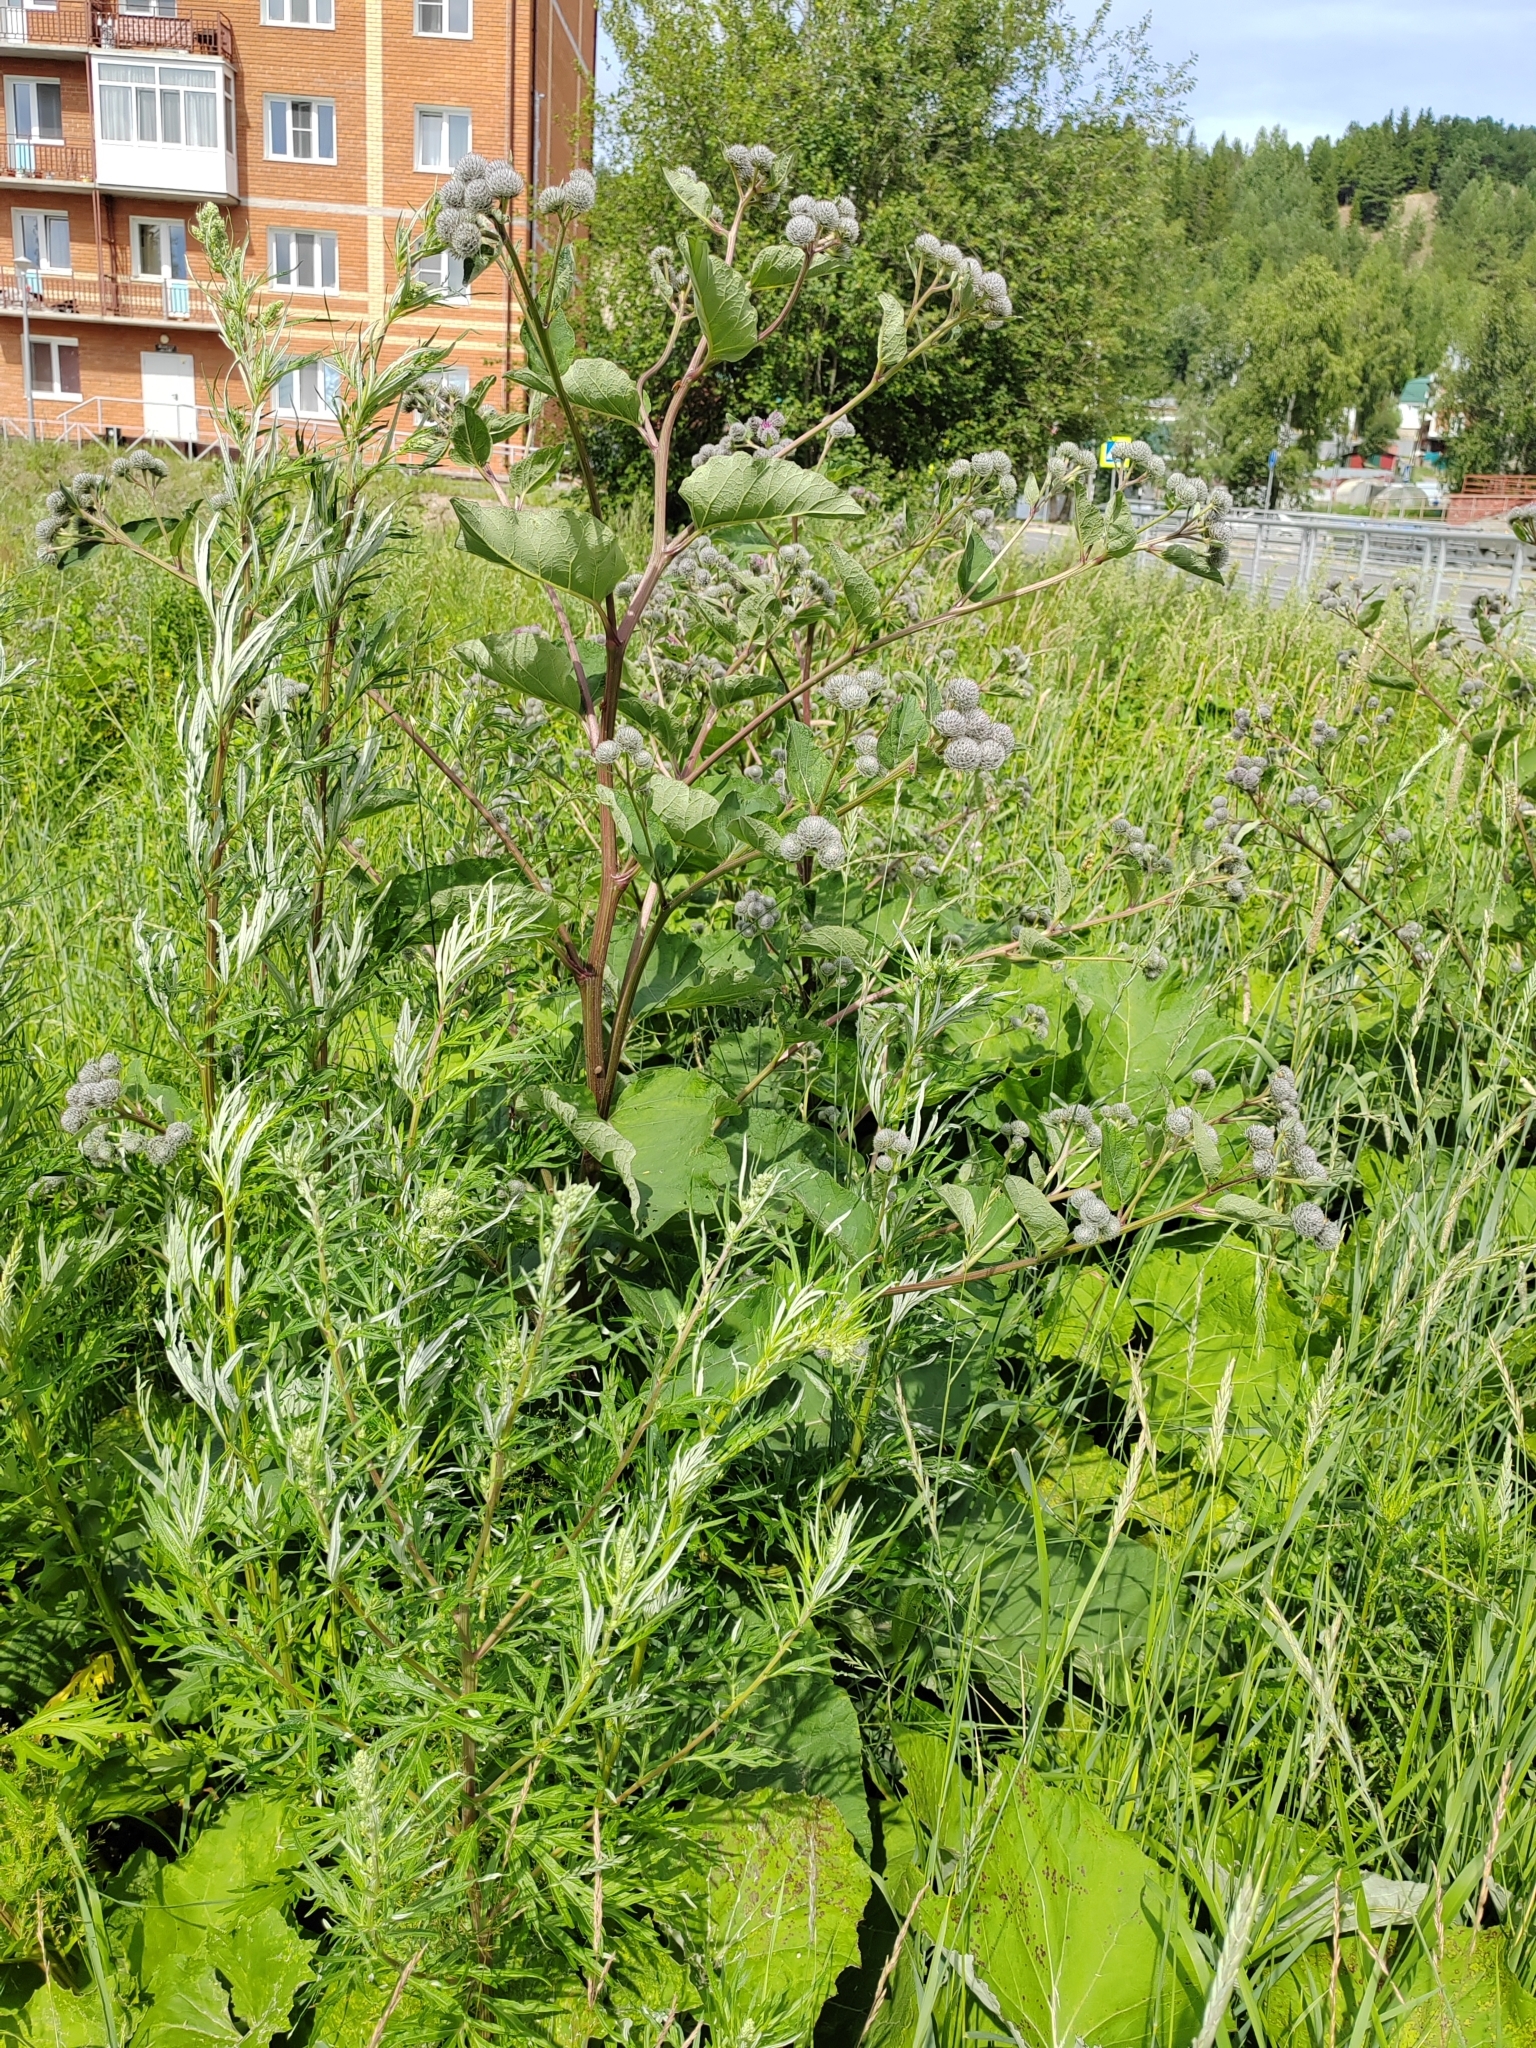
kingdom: Plantae
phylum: Tracheophyta
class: Magnoliopsida
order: Asterales
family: Asteraceae
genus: Arctium
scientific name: Arctium tomentosum
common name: Woolly burdock
